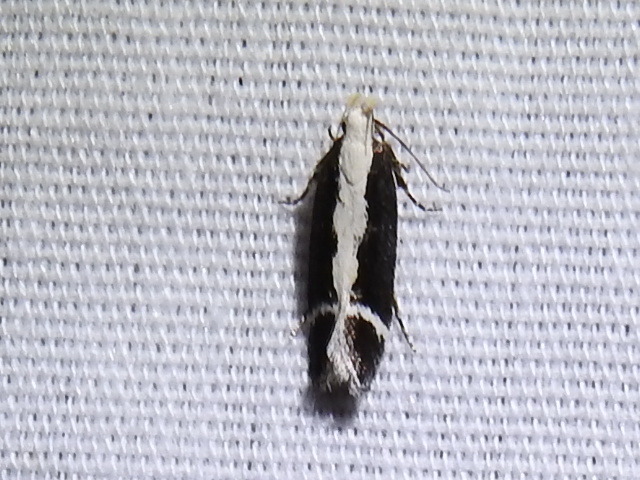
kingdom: Animalia
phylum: Arthropoda
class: Insecta
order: Lepidoptera
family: Gelechiidae
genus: Aroga
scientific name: Aroga unifasciella
